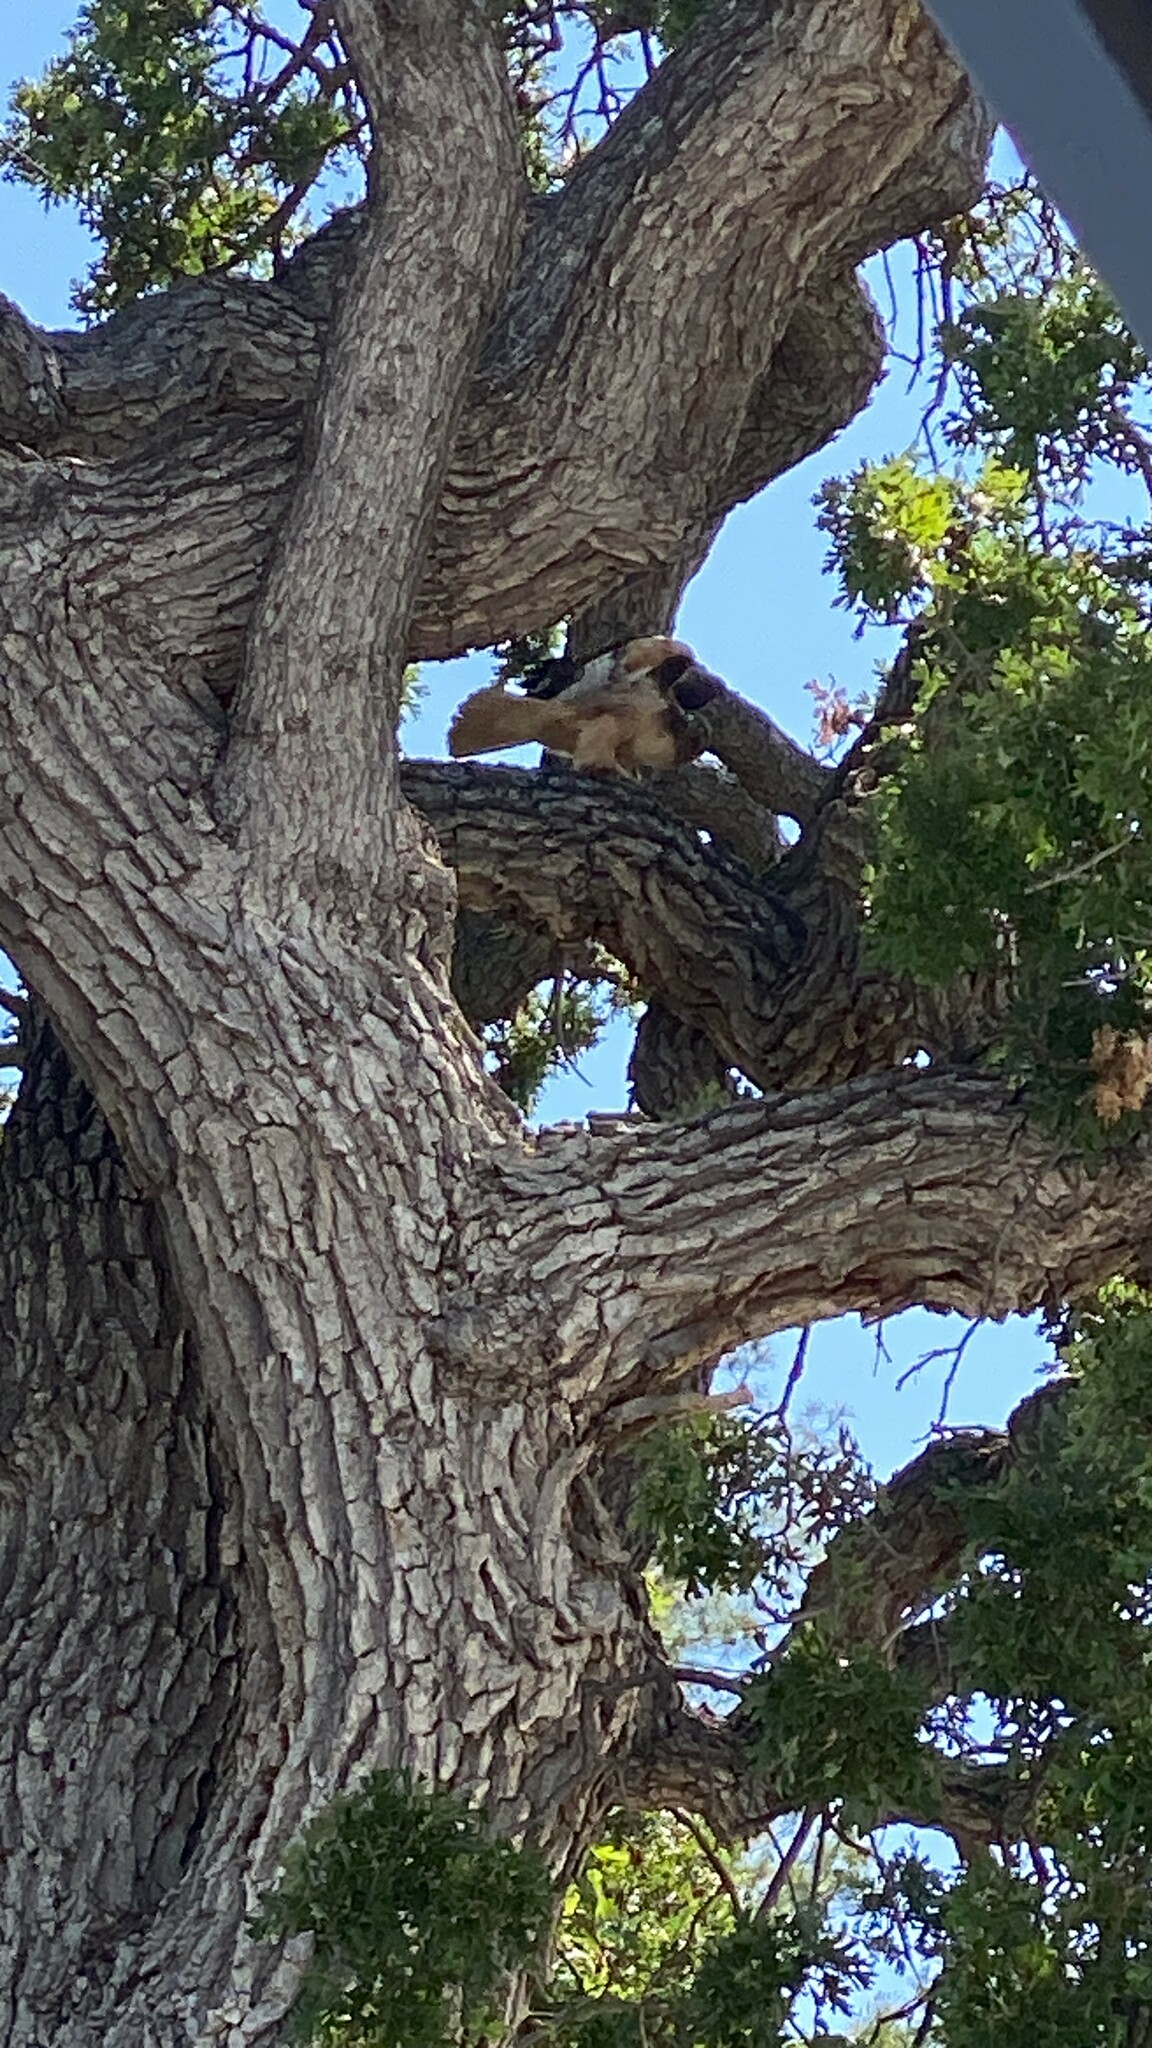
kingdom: Animalia
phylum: Chordata
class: Aves
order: Accipitriformes
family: Accipitridae
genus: Buteo
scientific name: Buteo jamaicensis
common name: Red-tailed hawk
